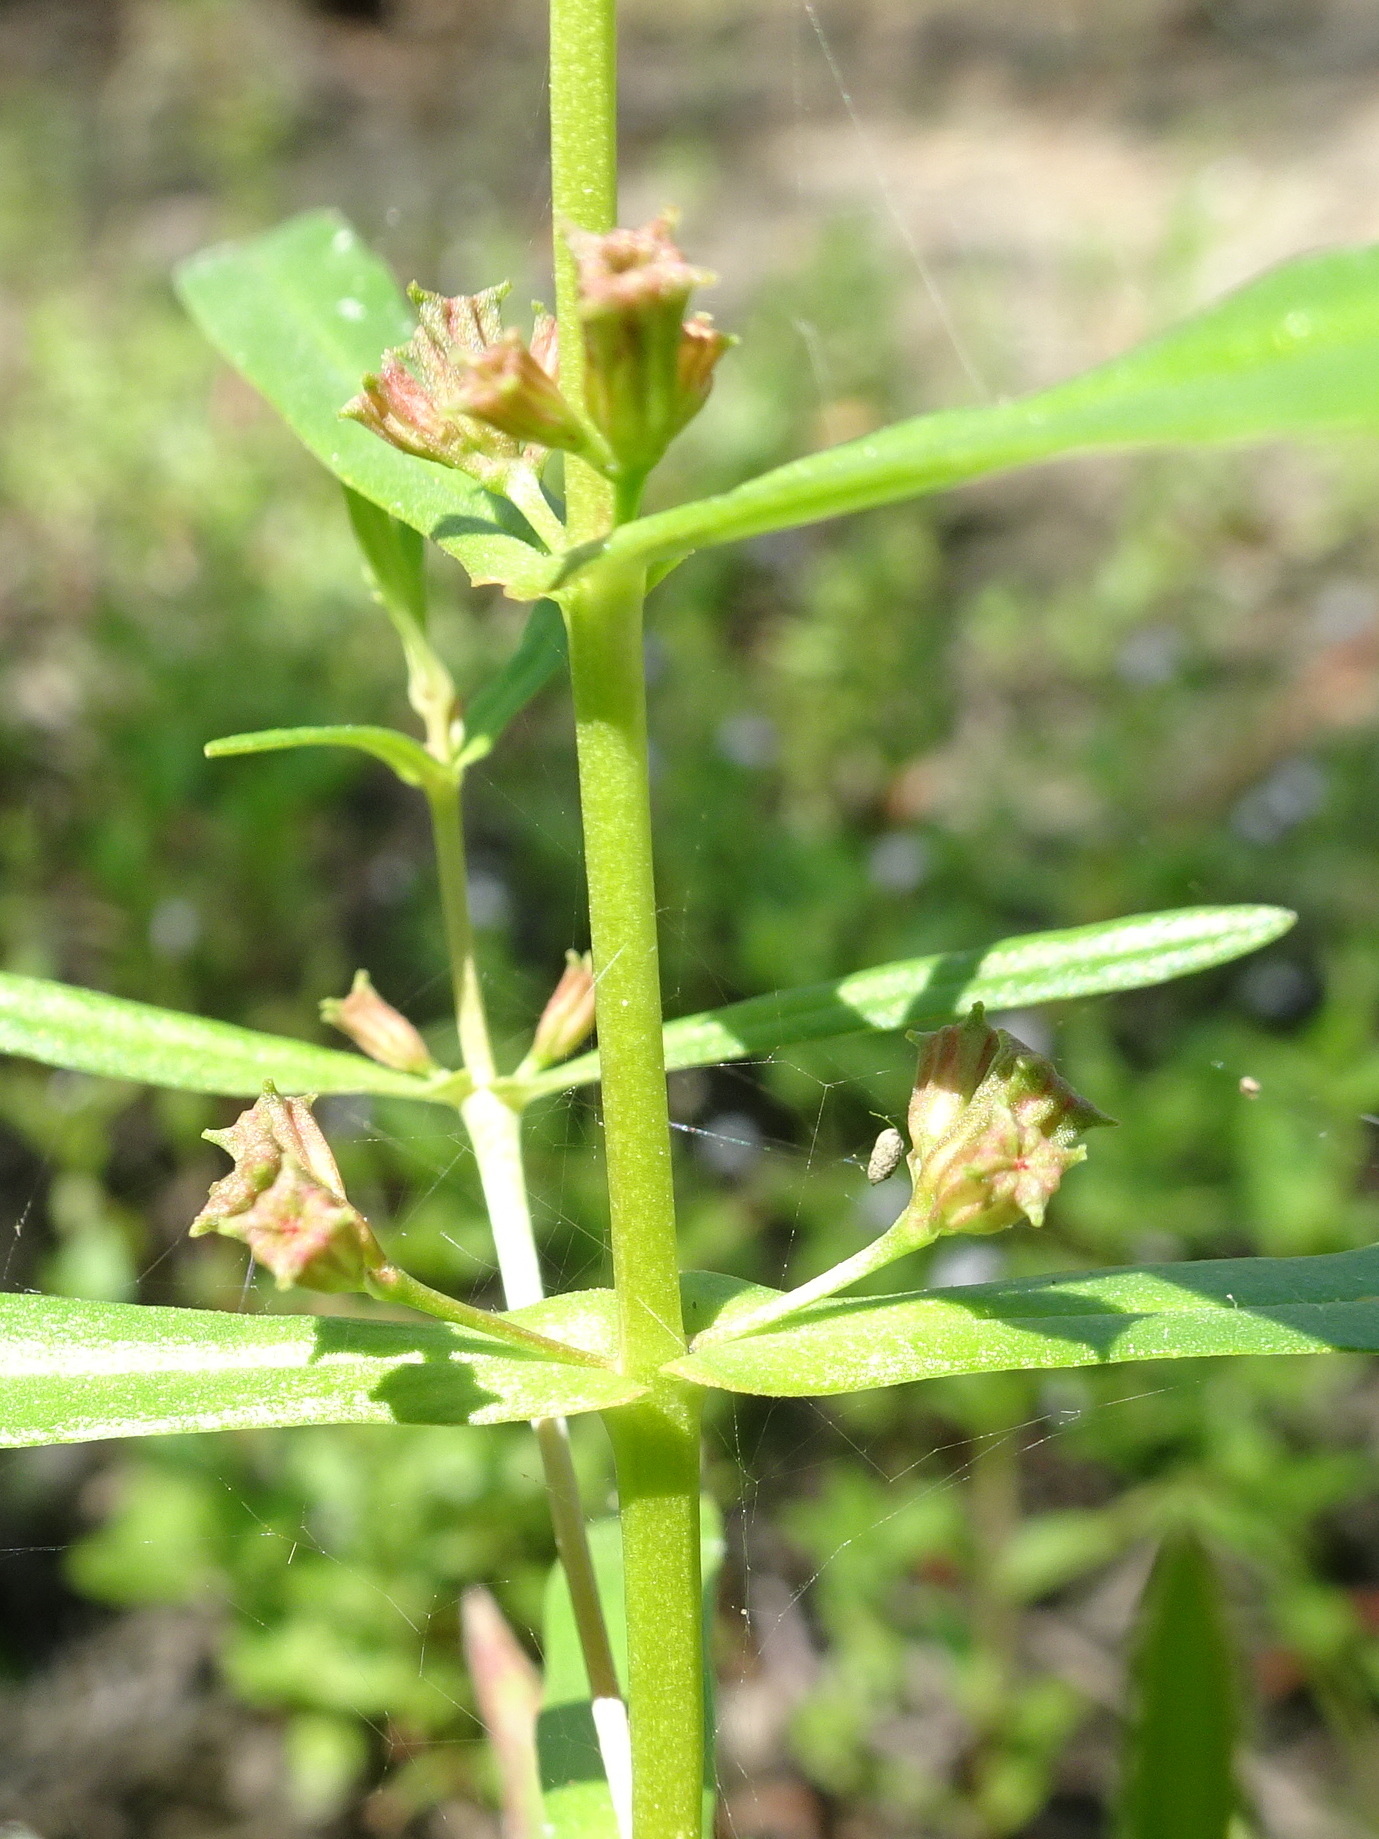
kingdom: Plantae
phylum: Tracheophyta
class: Magnoliopsida
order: Myrtales
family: Lythraceae
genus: Ammannia
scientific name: Ammannia coccinea
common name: Valley redstem
